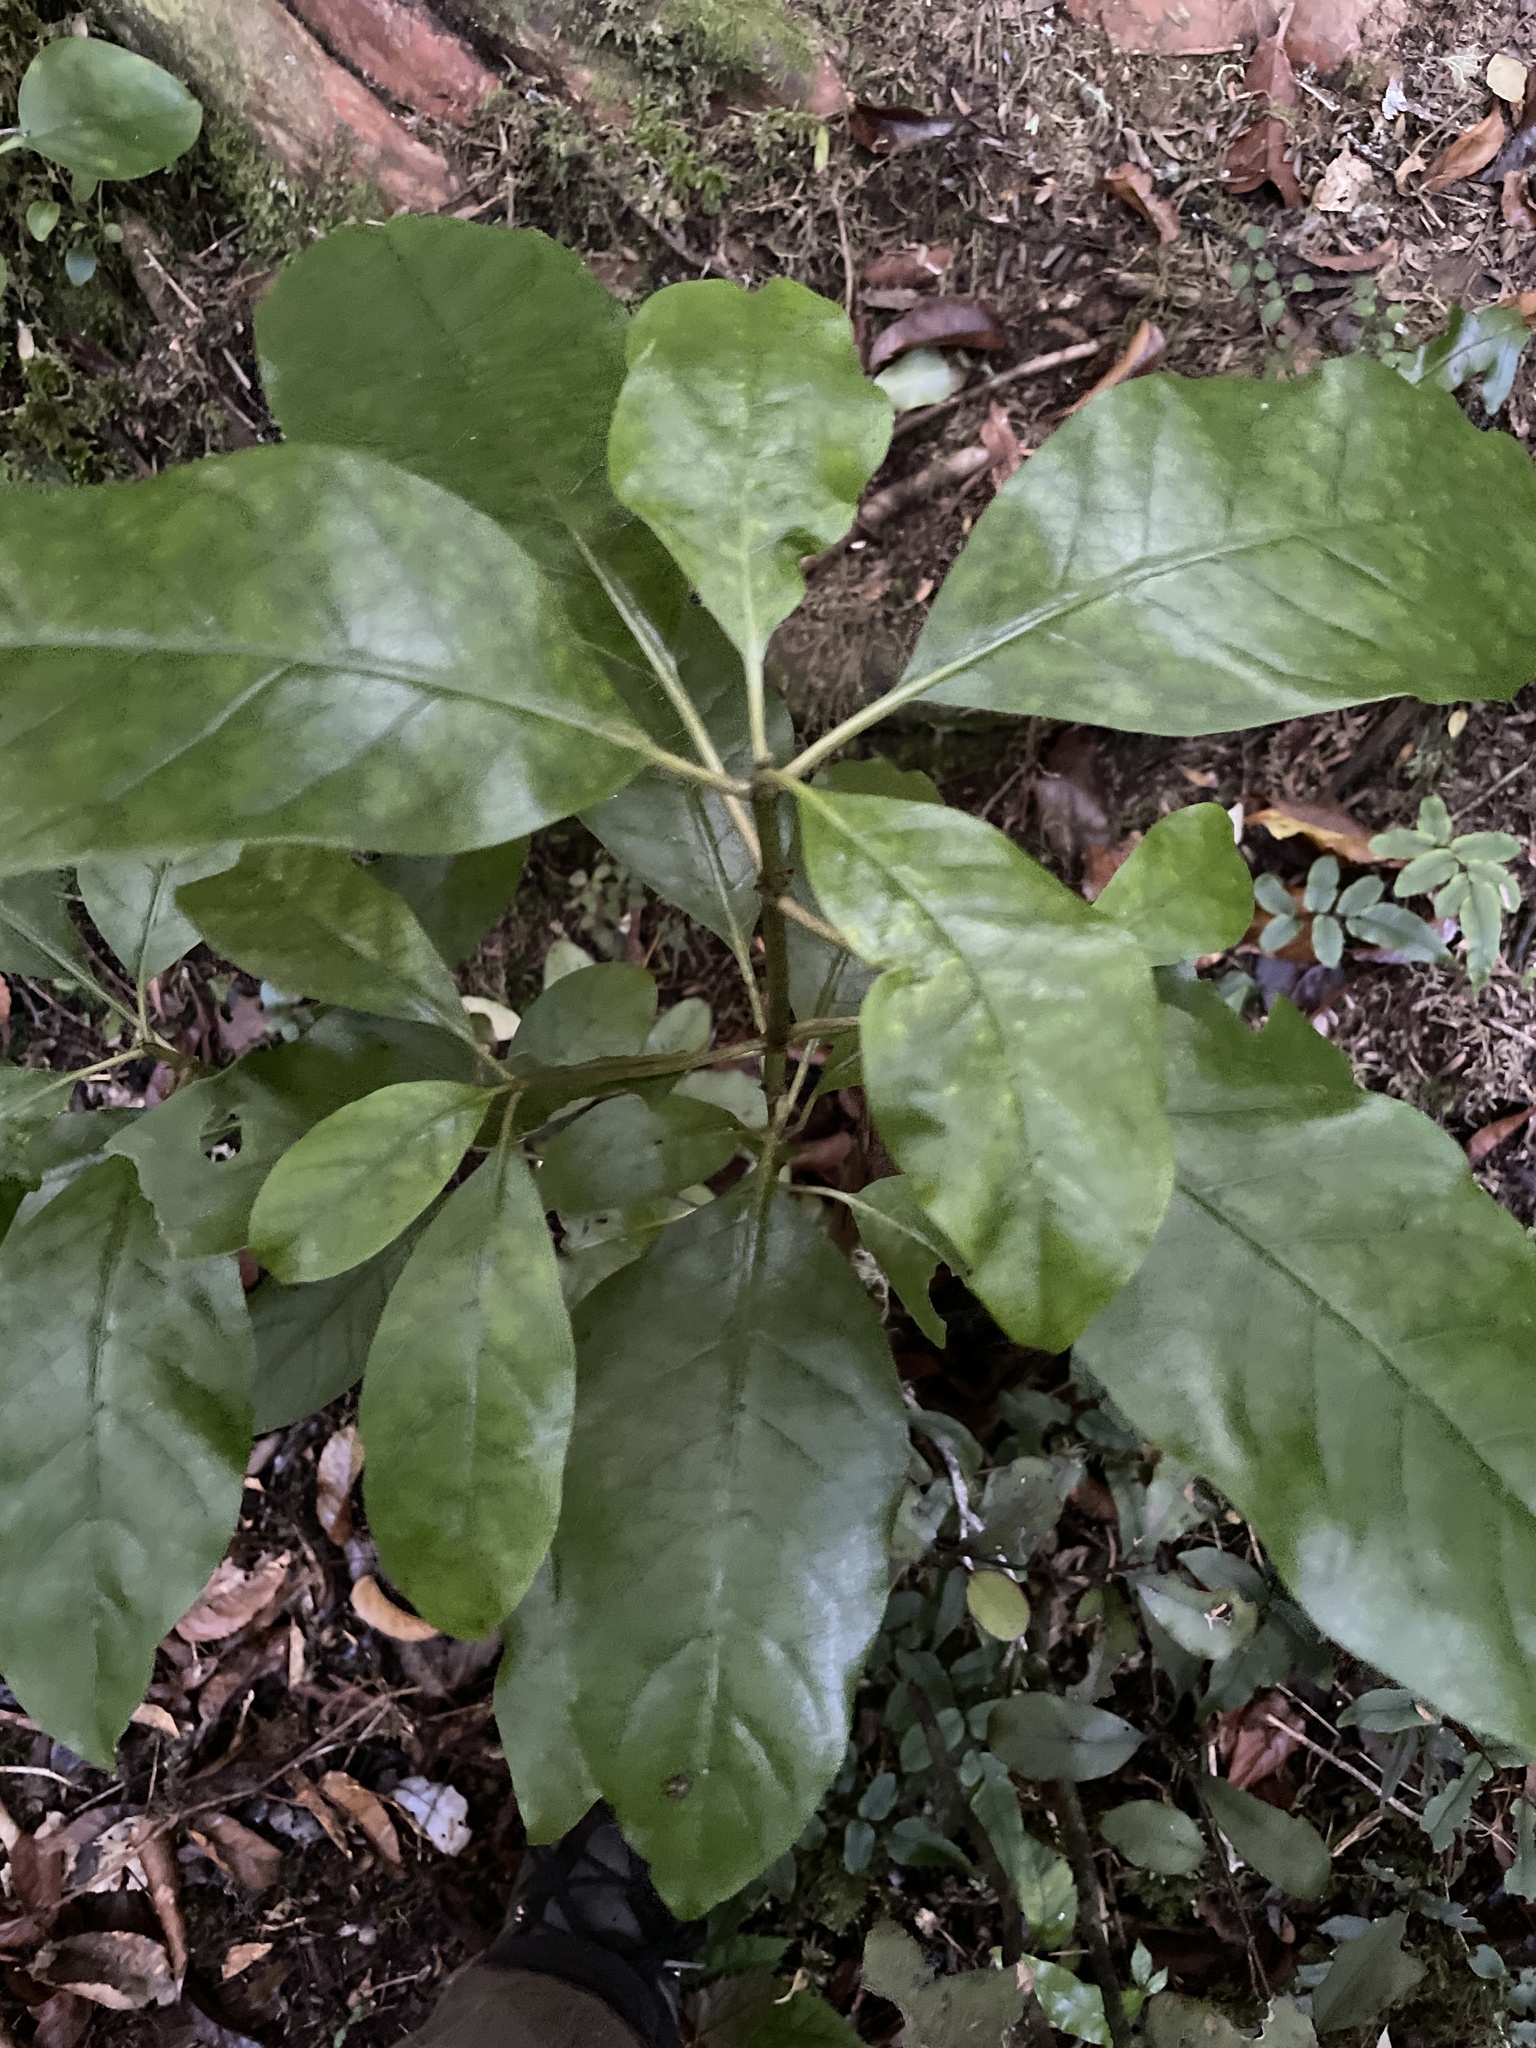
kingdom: Plantae
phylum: Tracheophyta
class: Magnoliopsida
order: Gentianales
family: Rubiaceae
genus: Coprosma
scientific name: Coprosma autumnalis
